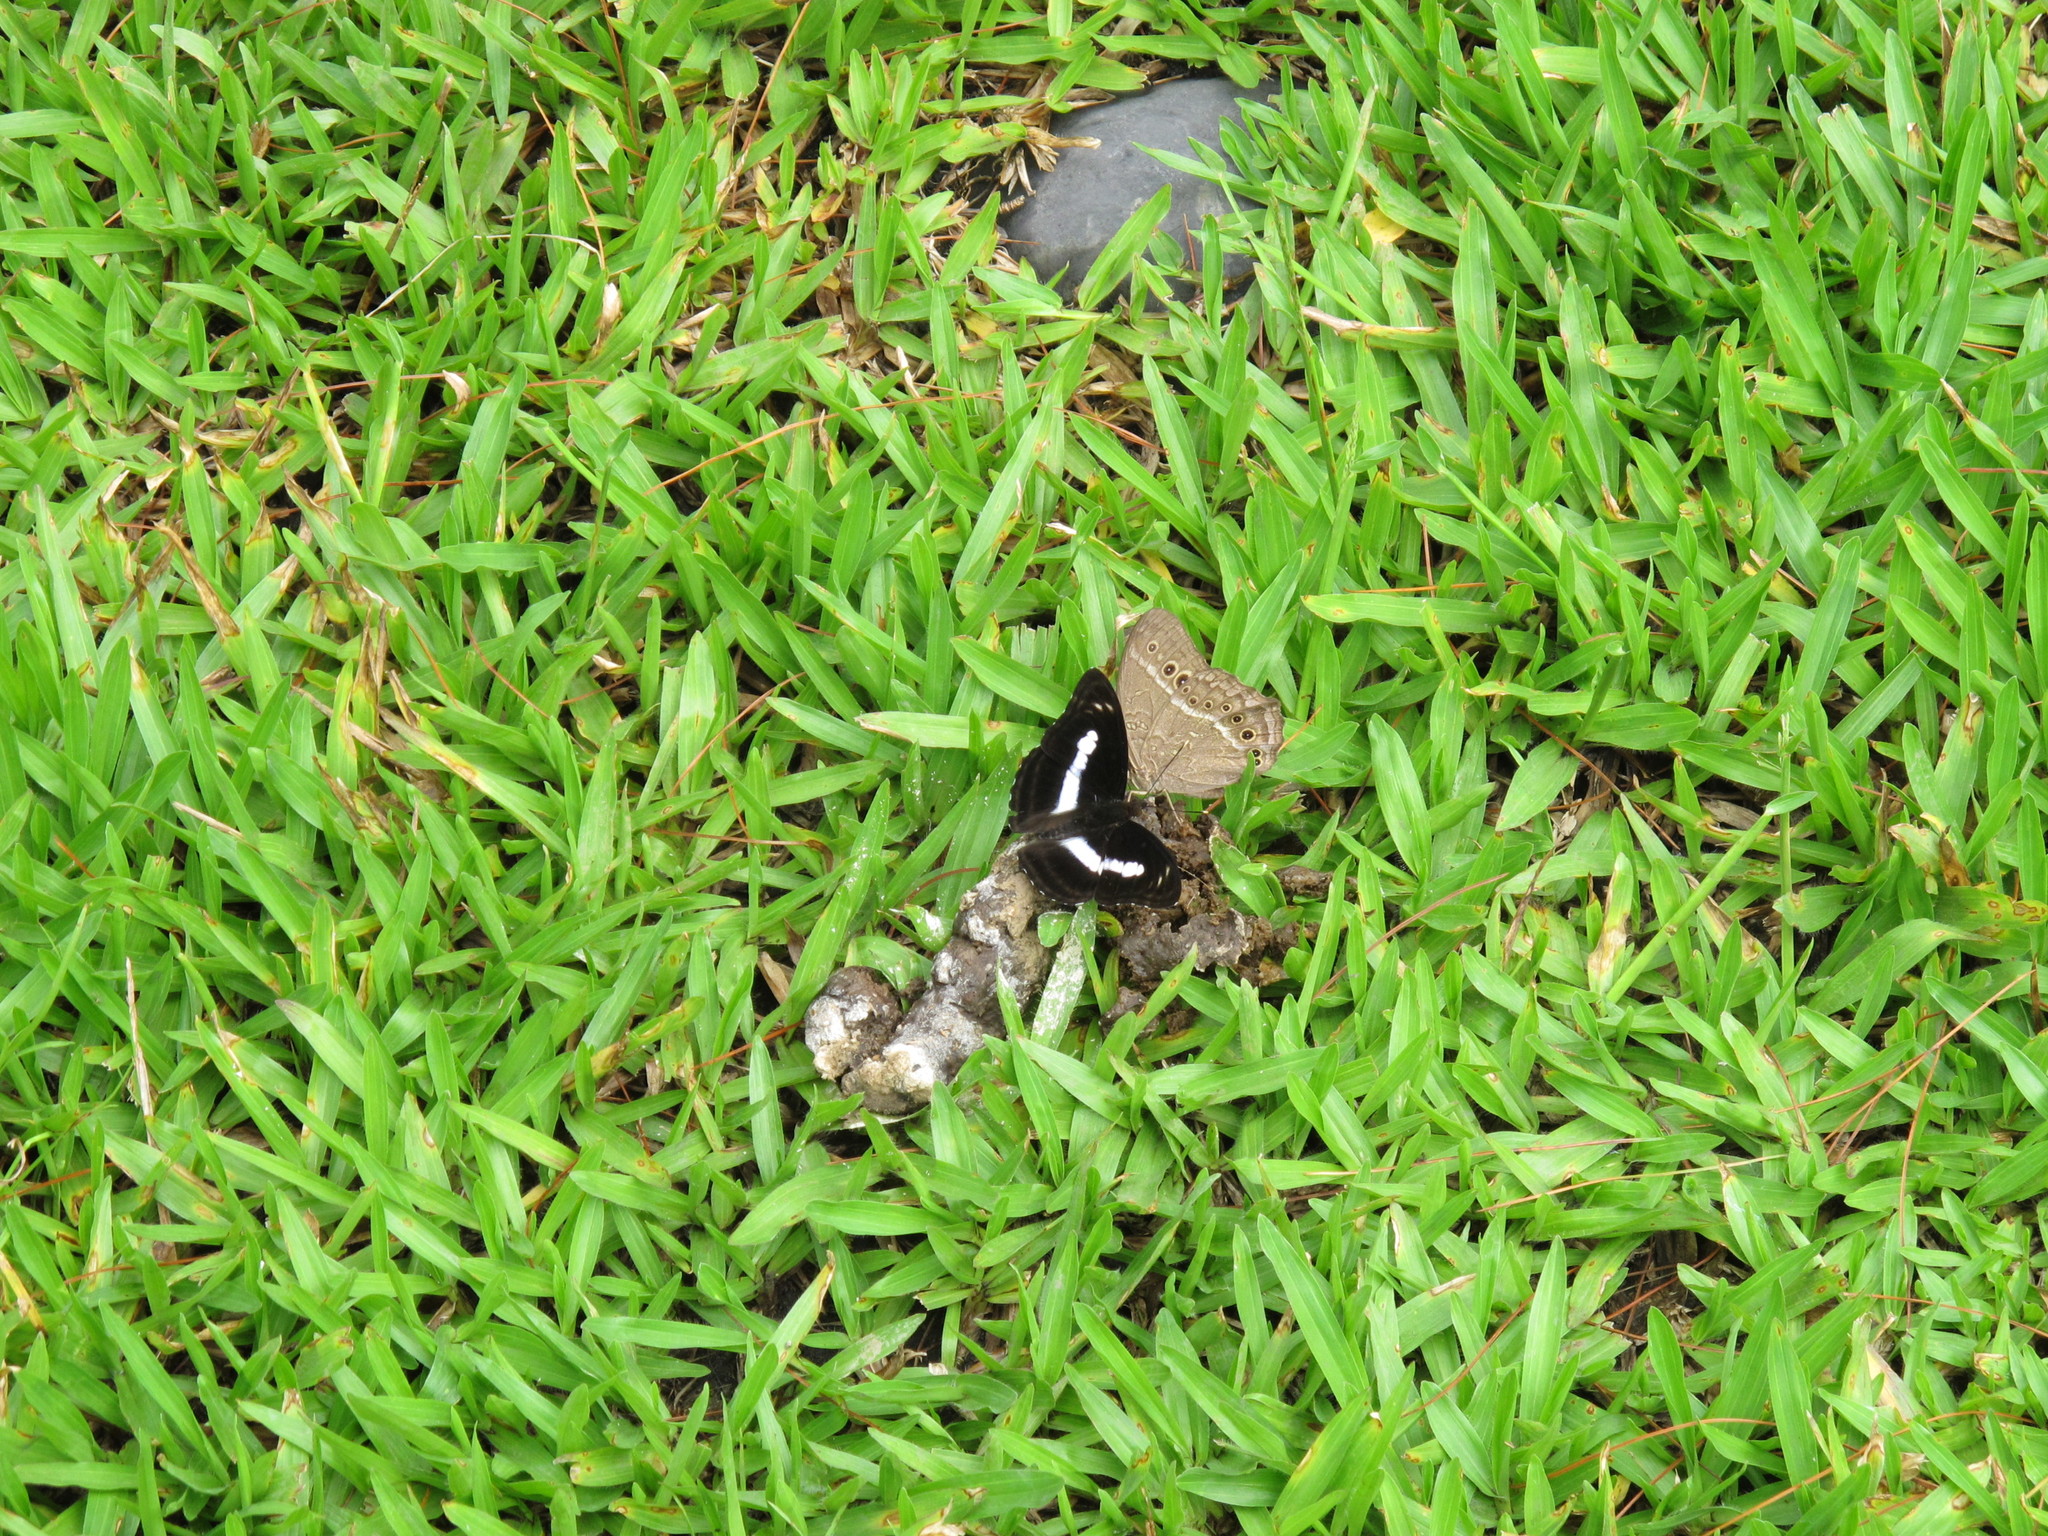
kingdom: Animalia
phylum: Arthropoda
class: Insecta
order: Lepidoptera
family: Nymphalidae
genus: Parathyma
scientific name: Parathyma selenophora
